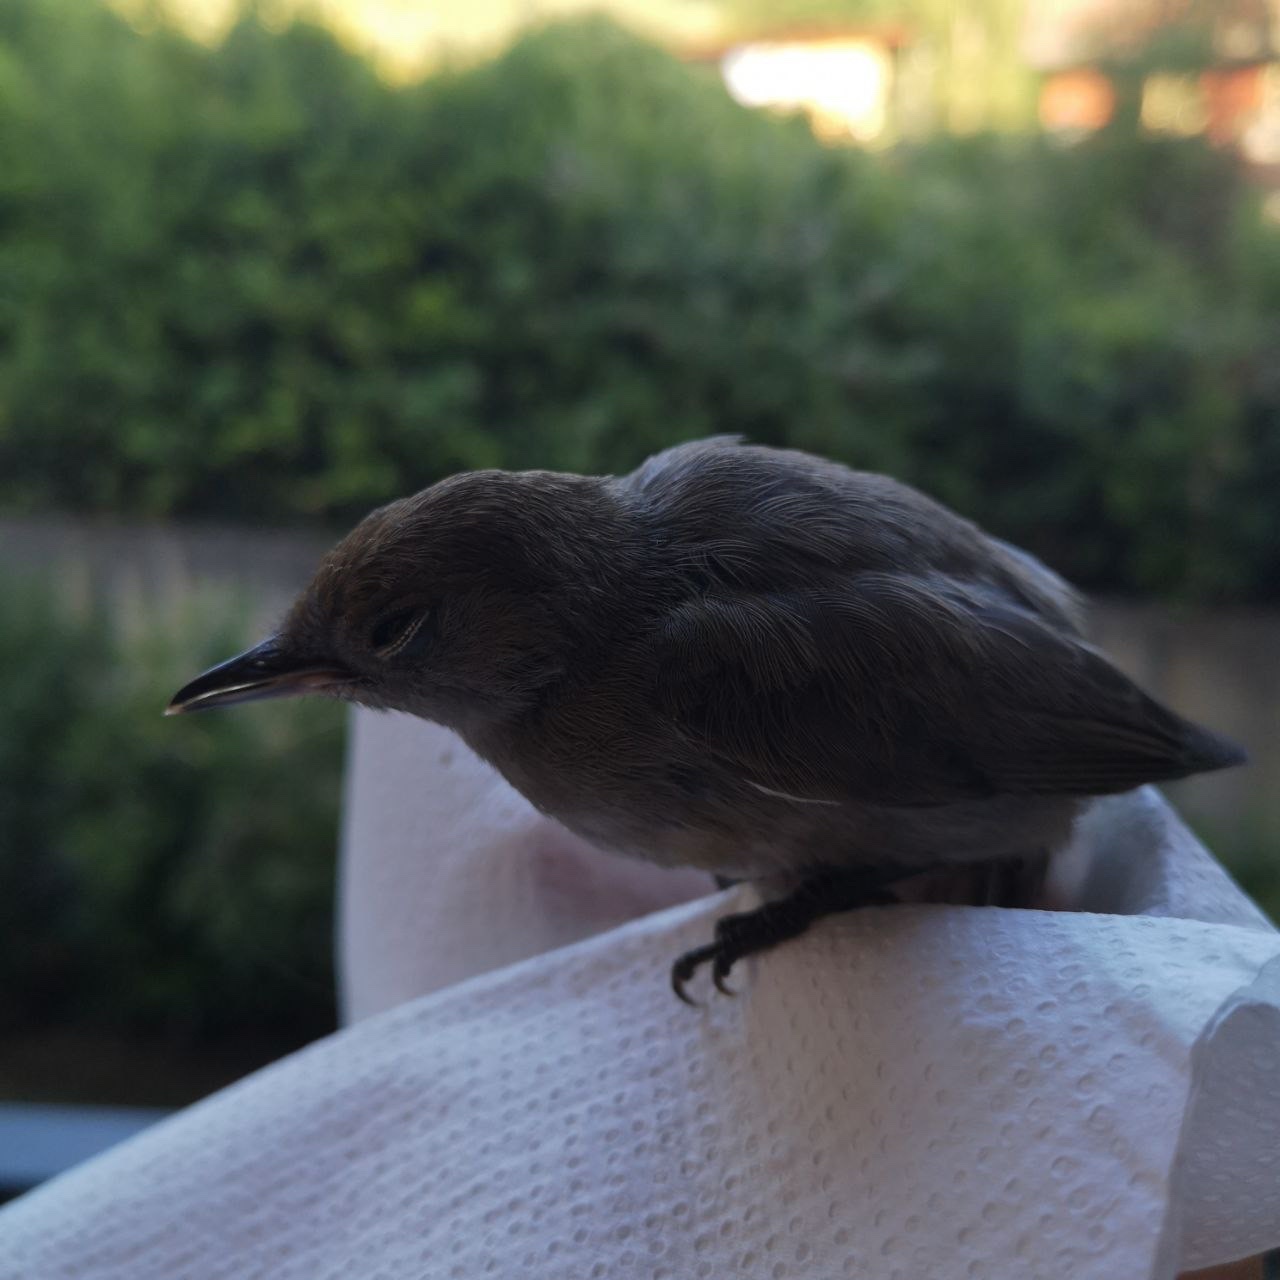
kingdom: Animalia
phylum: Chordata
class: Aves
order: Passeriformes
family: Sylviidae
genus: Sylvia
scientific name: Sylvia atricapilla
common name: Eurasian blackcap
